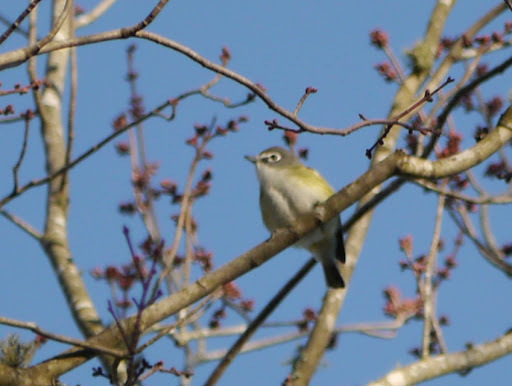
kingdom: Animalia
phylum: Chordata
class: Aves
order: Passeriformes
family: Vireonidae
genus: Vireo
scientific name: Vireo solitarius
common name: Blue-headed vireo
